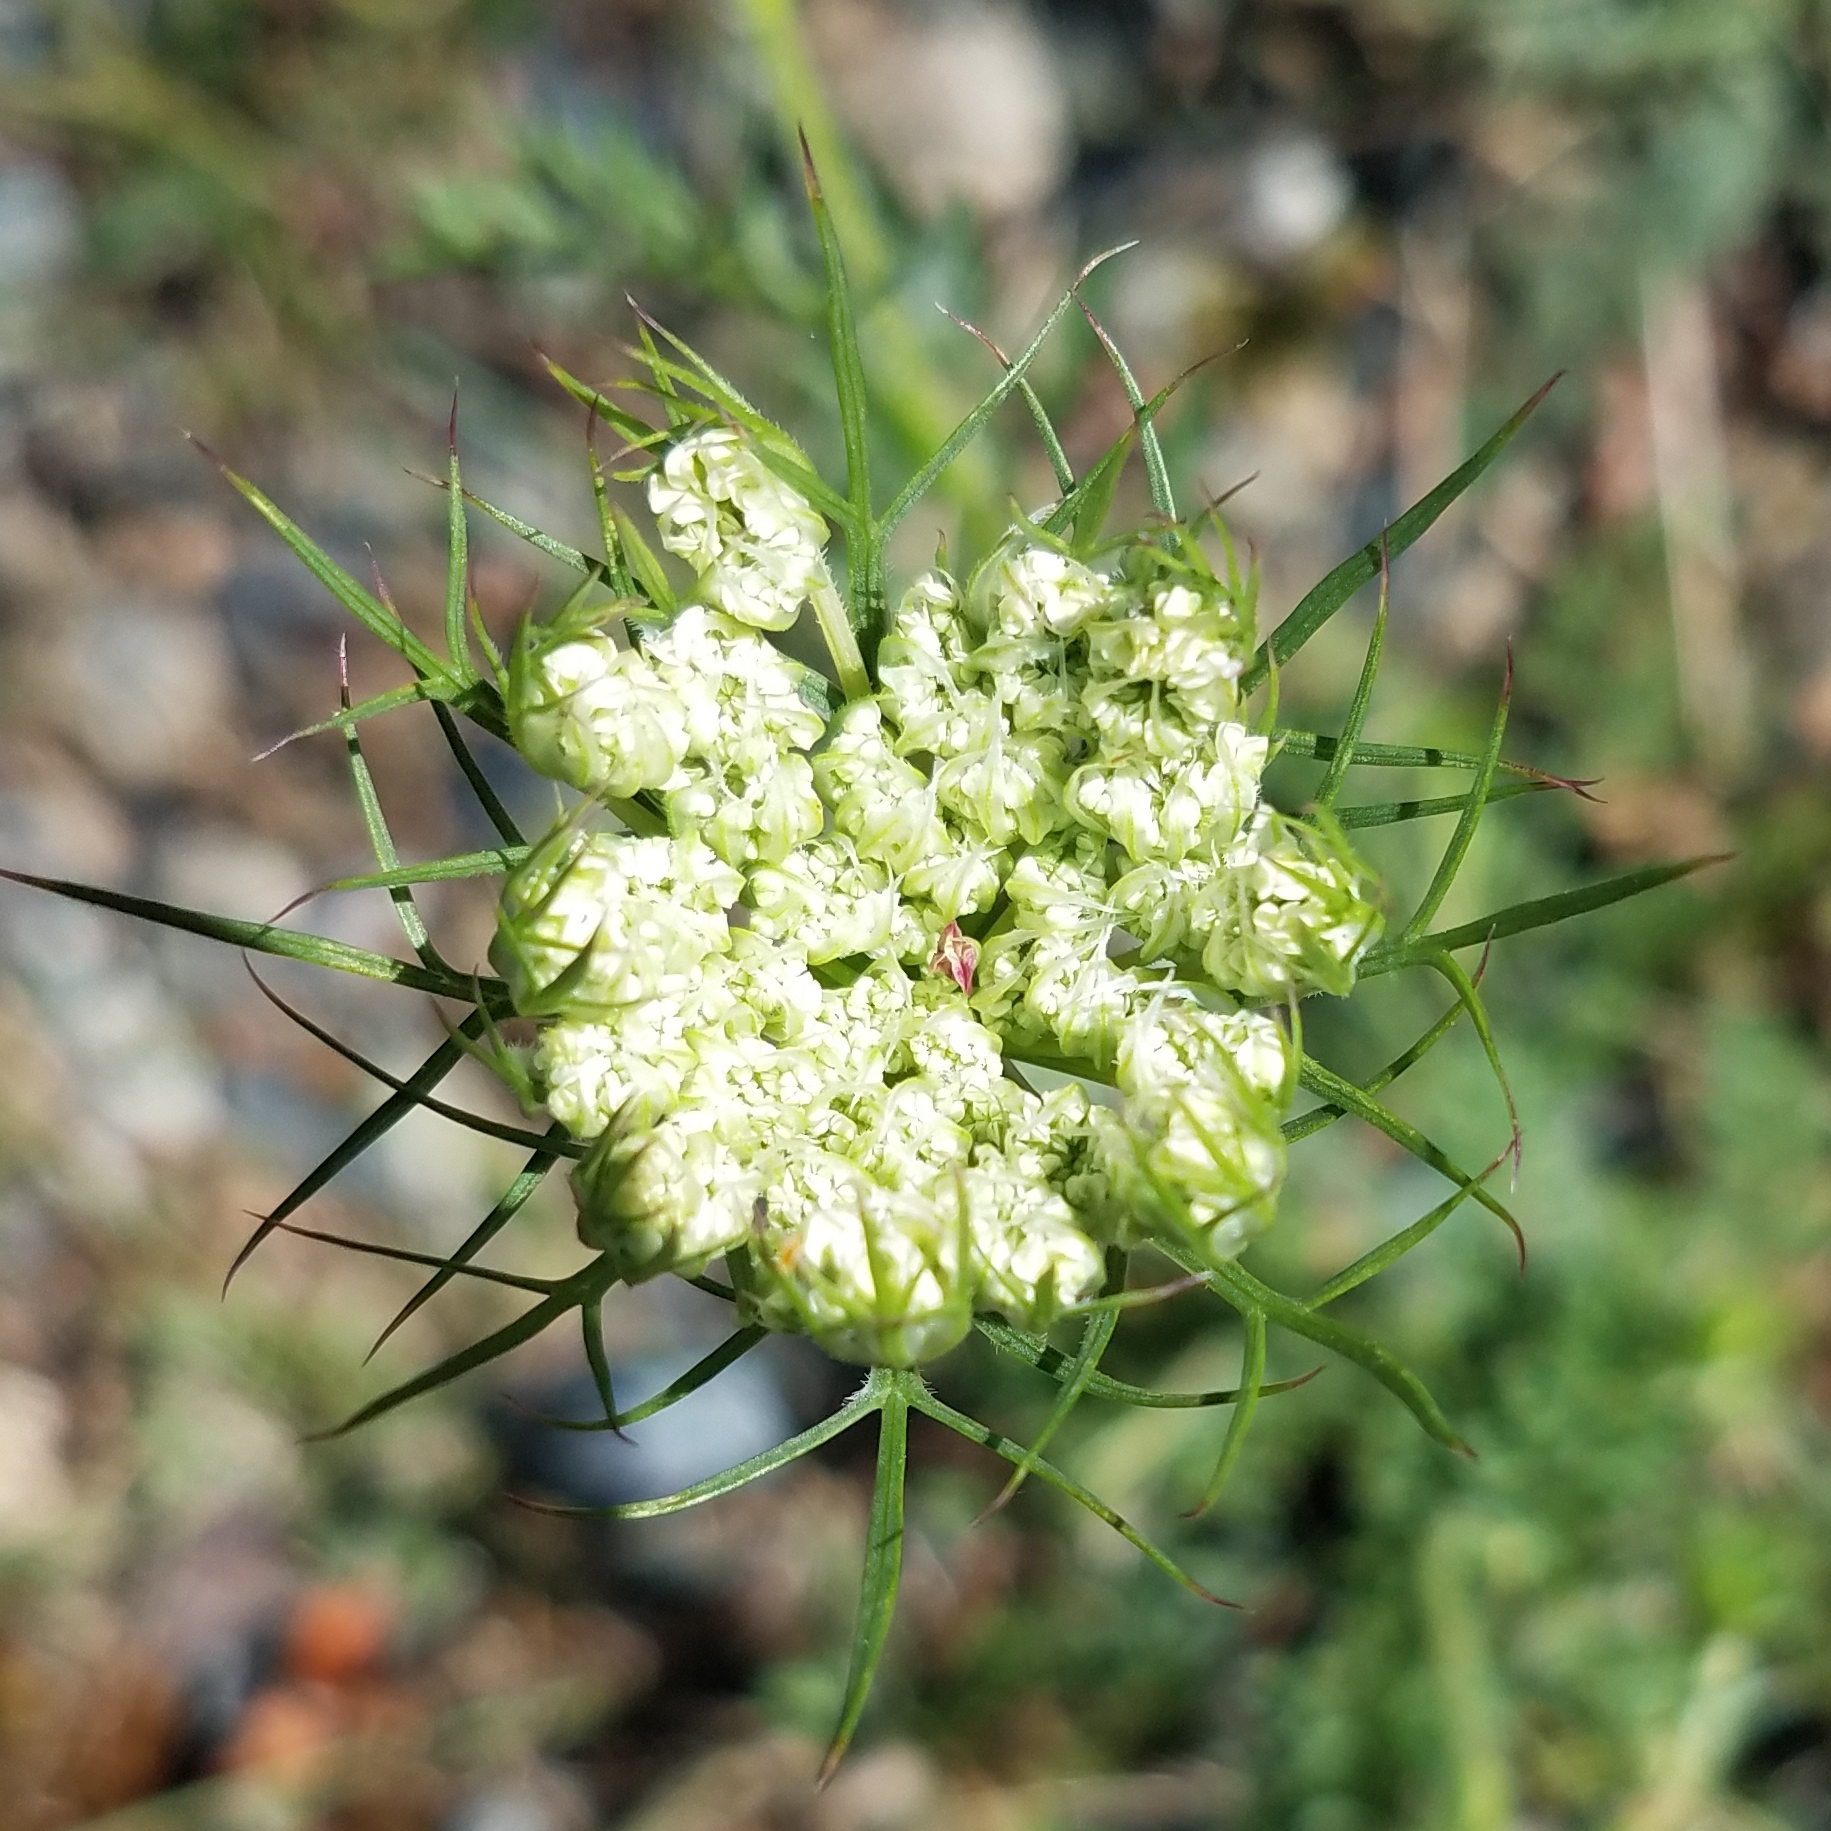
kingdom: Plantae
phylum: Tracheophyta
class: Magnoliopsida
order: Apiales
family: Apiaceae
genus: Daucus
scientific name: Daucus carota
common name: Wild carrot
